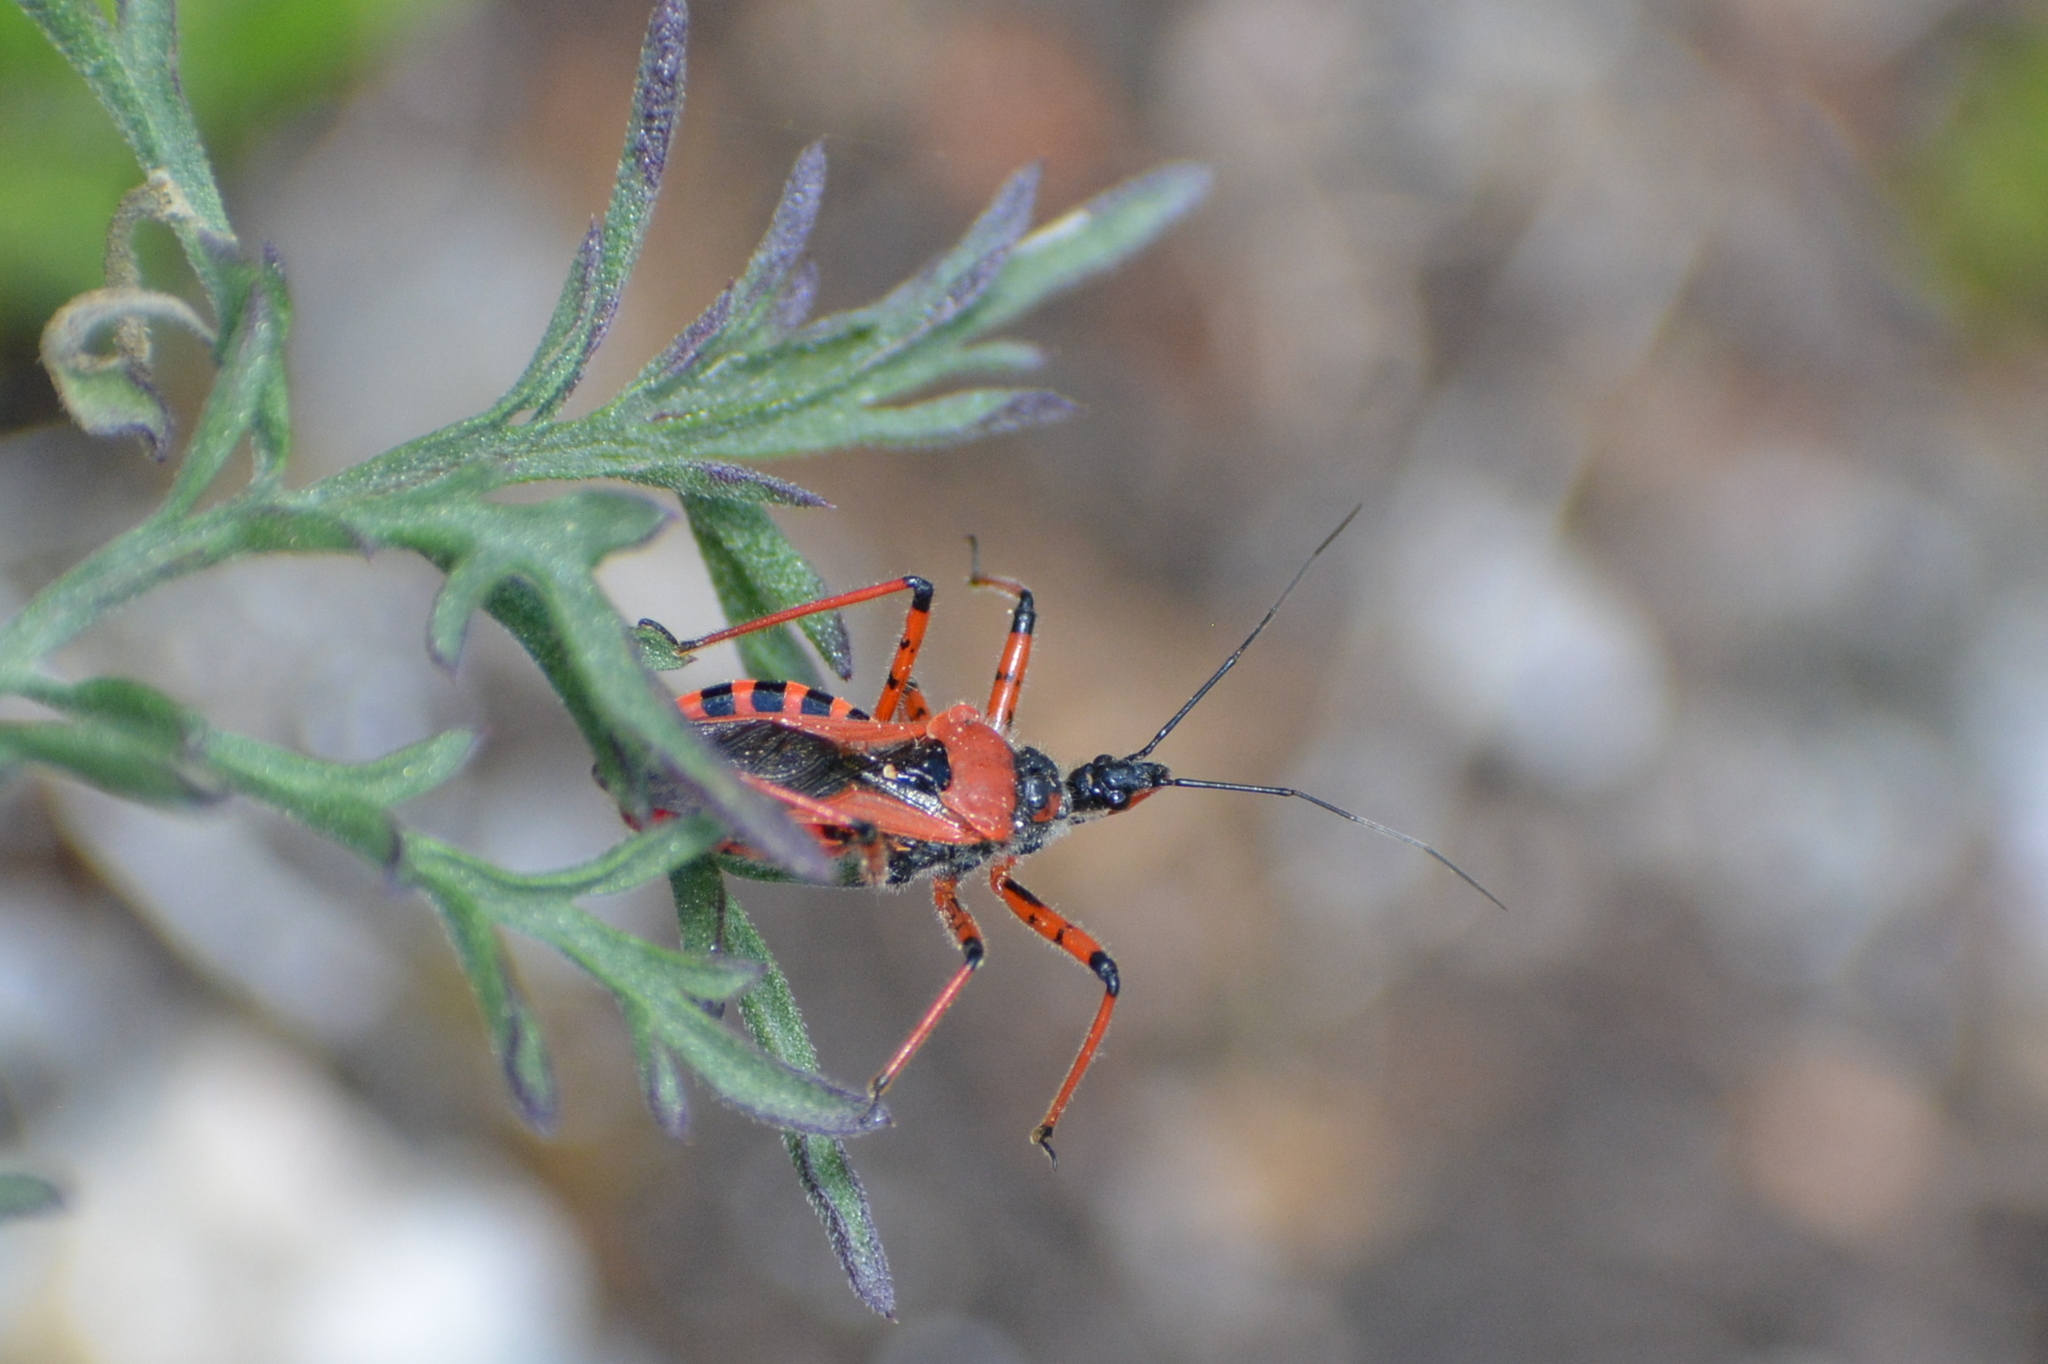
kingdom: Animalia
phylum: Arthropoda
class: Insecta
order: Hemiptera
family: Reduviidae
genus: Rhynocoris
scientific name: Rhynocoris iracundus
